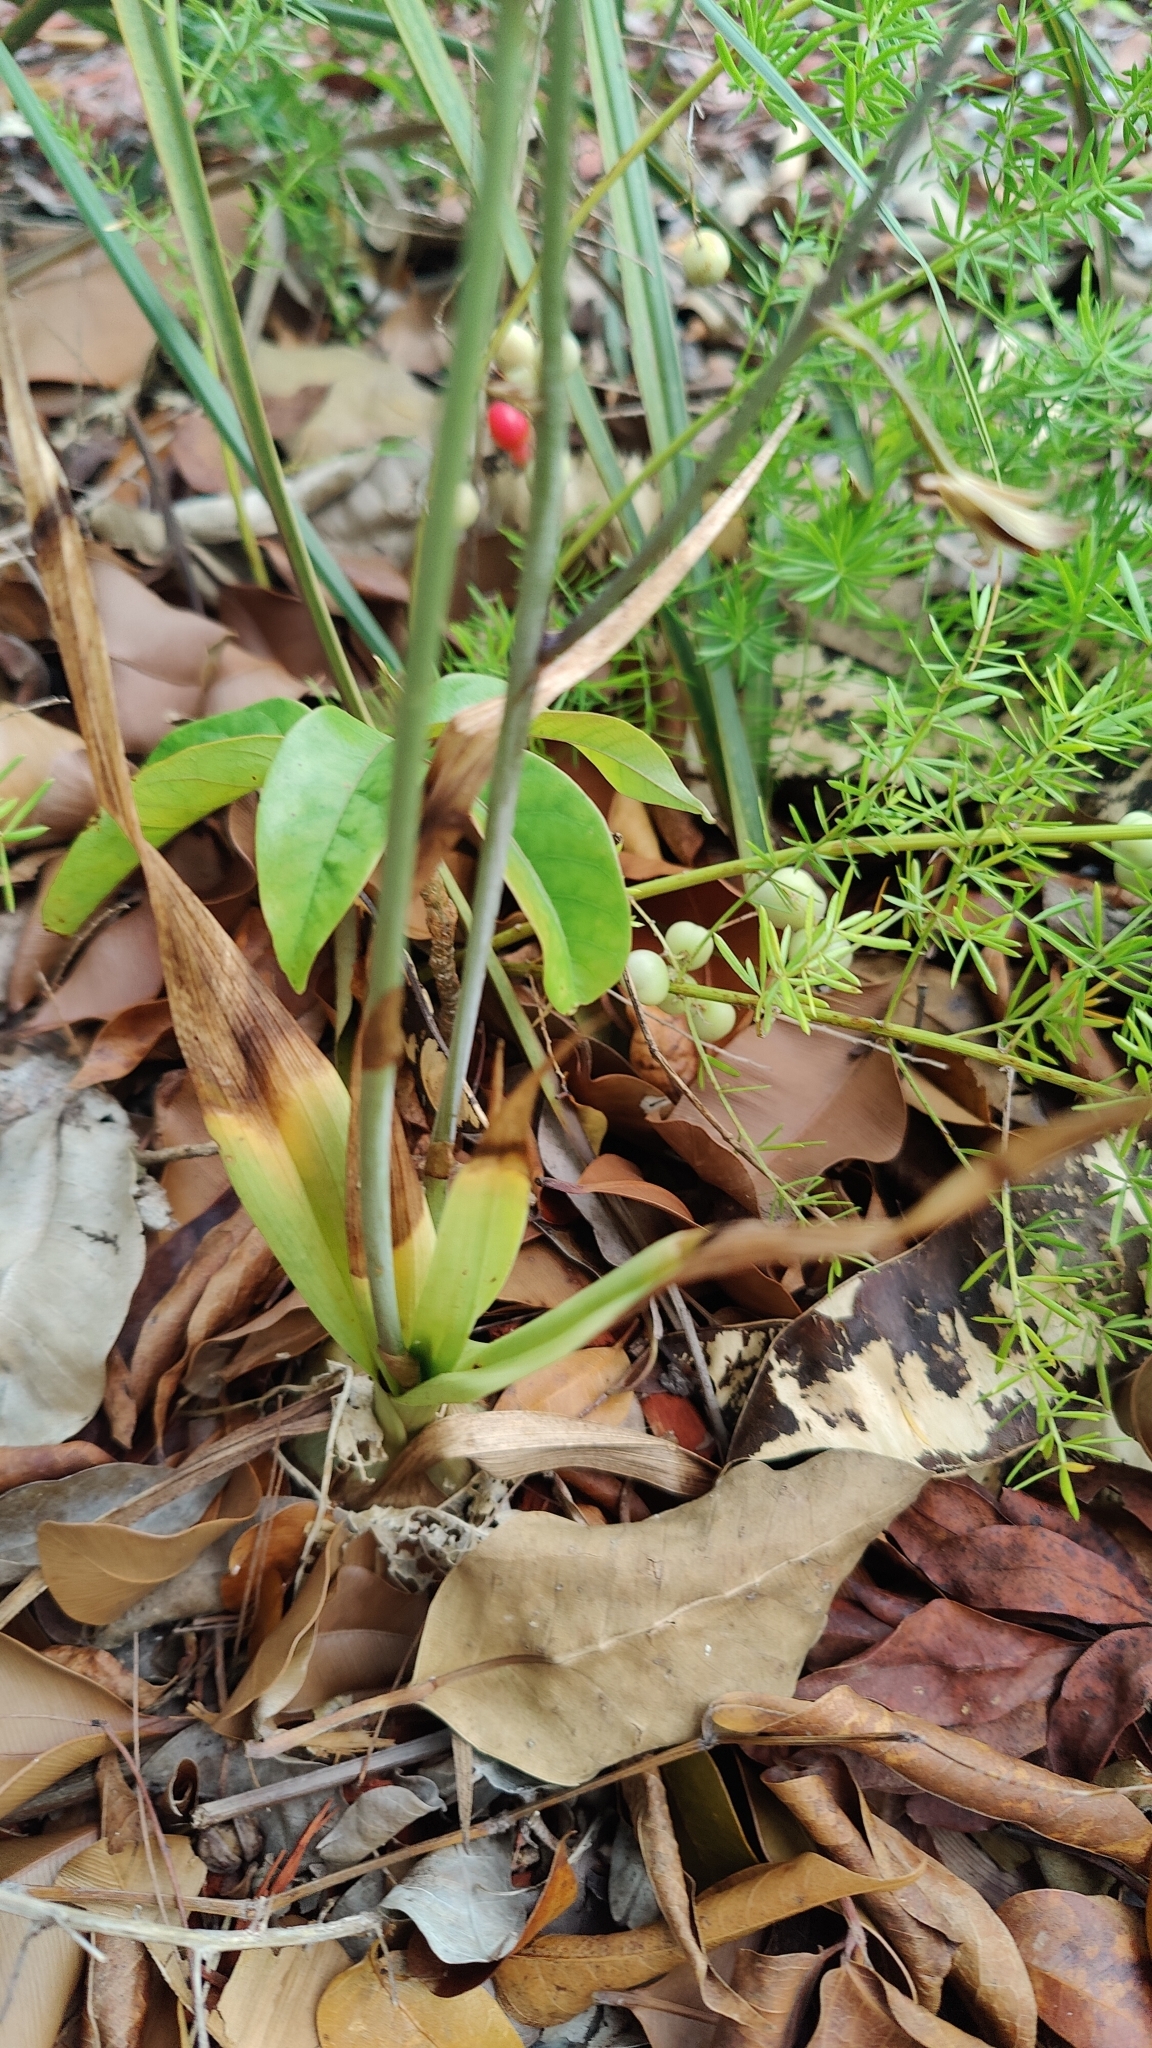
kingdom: Plantae
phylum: Tracheophyta
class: Liliopsida
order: Asparagales
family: Orchidaceae
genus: Eulophia
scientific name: Eulophia graminea
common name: Orchid
